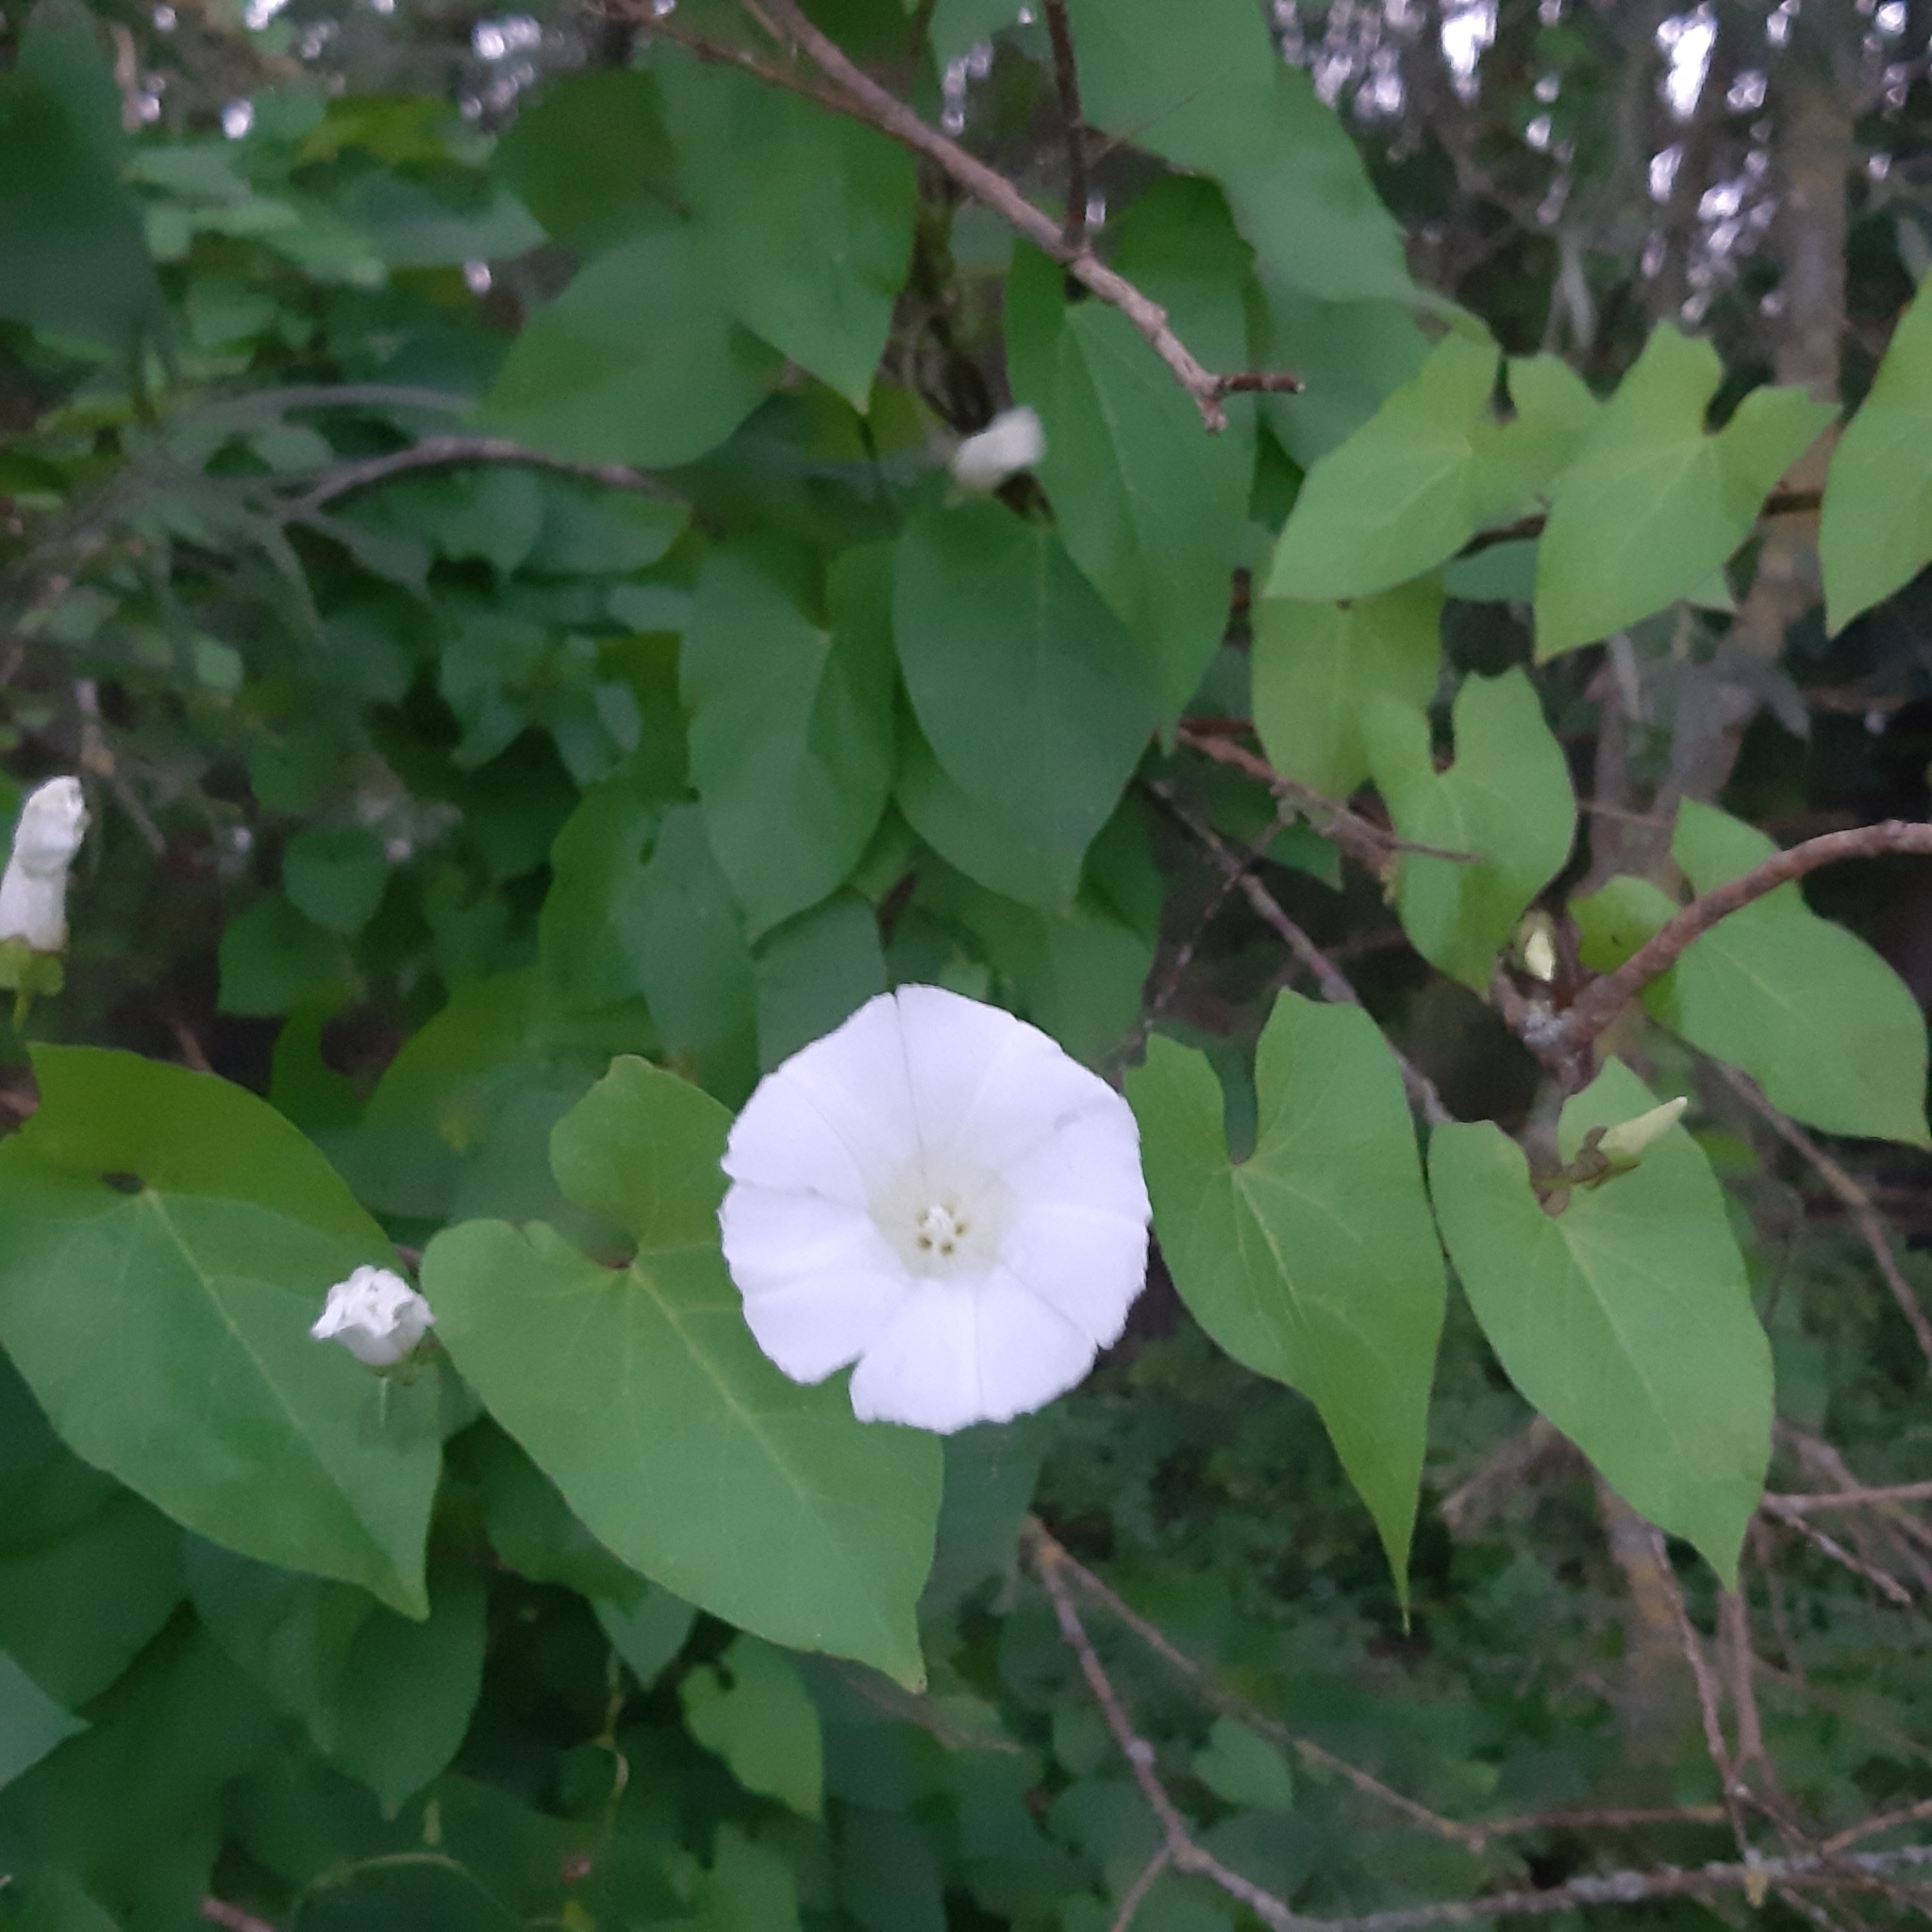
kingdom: Plantae
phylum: Tracheophyta
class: Magnoliopsida
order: Solanales
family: Convolvulaceae
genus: Calystegia
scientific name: Calystegia sepium
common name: Hedge bindweed
